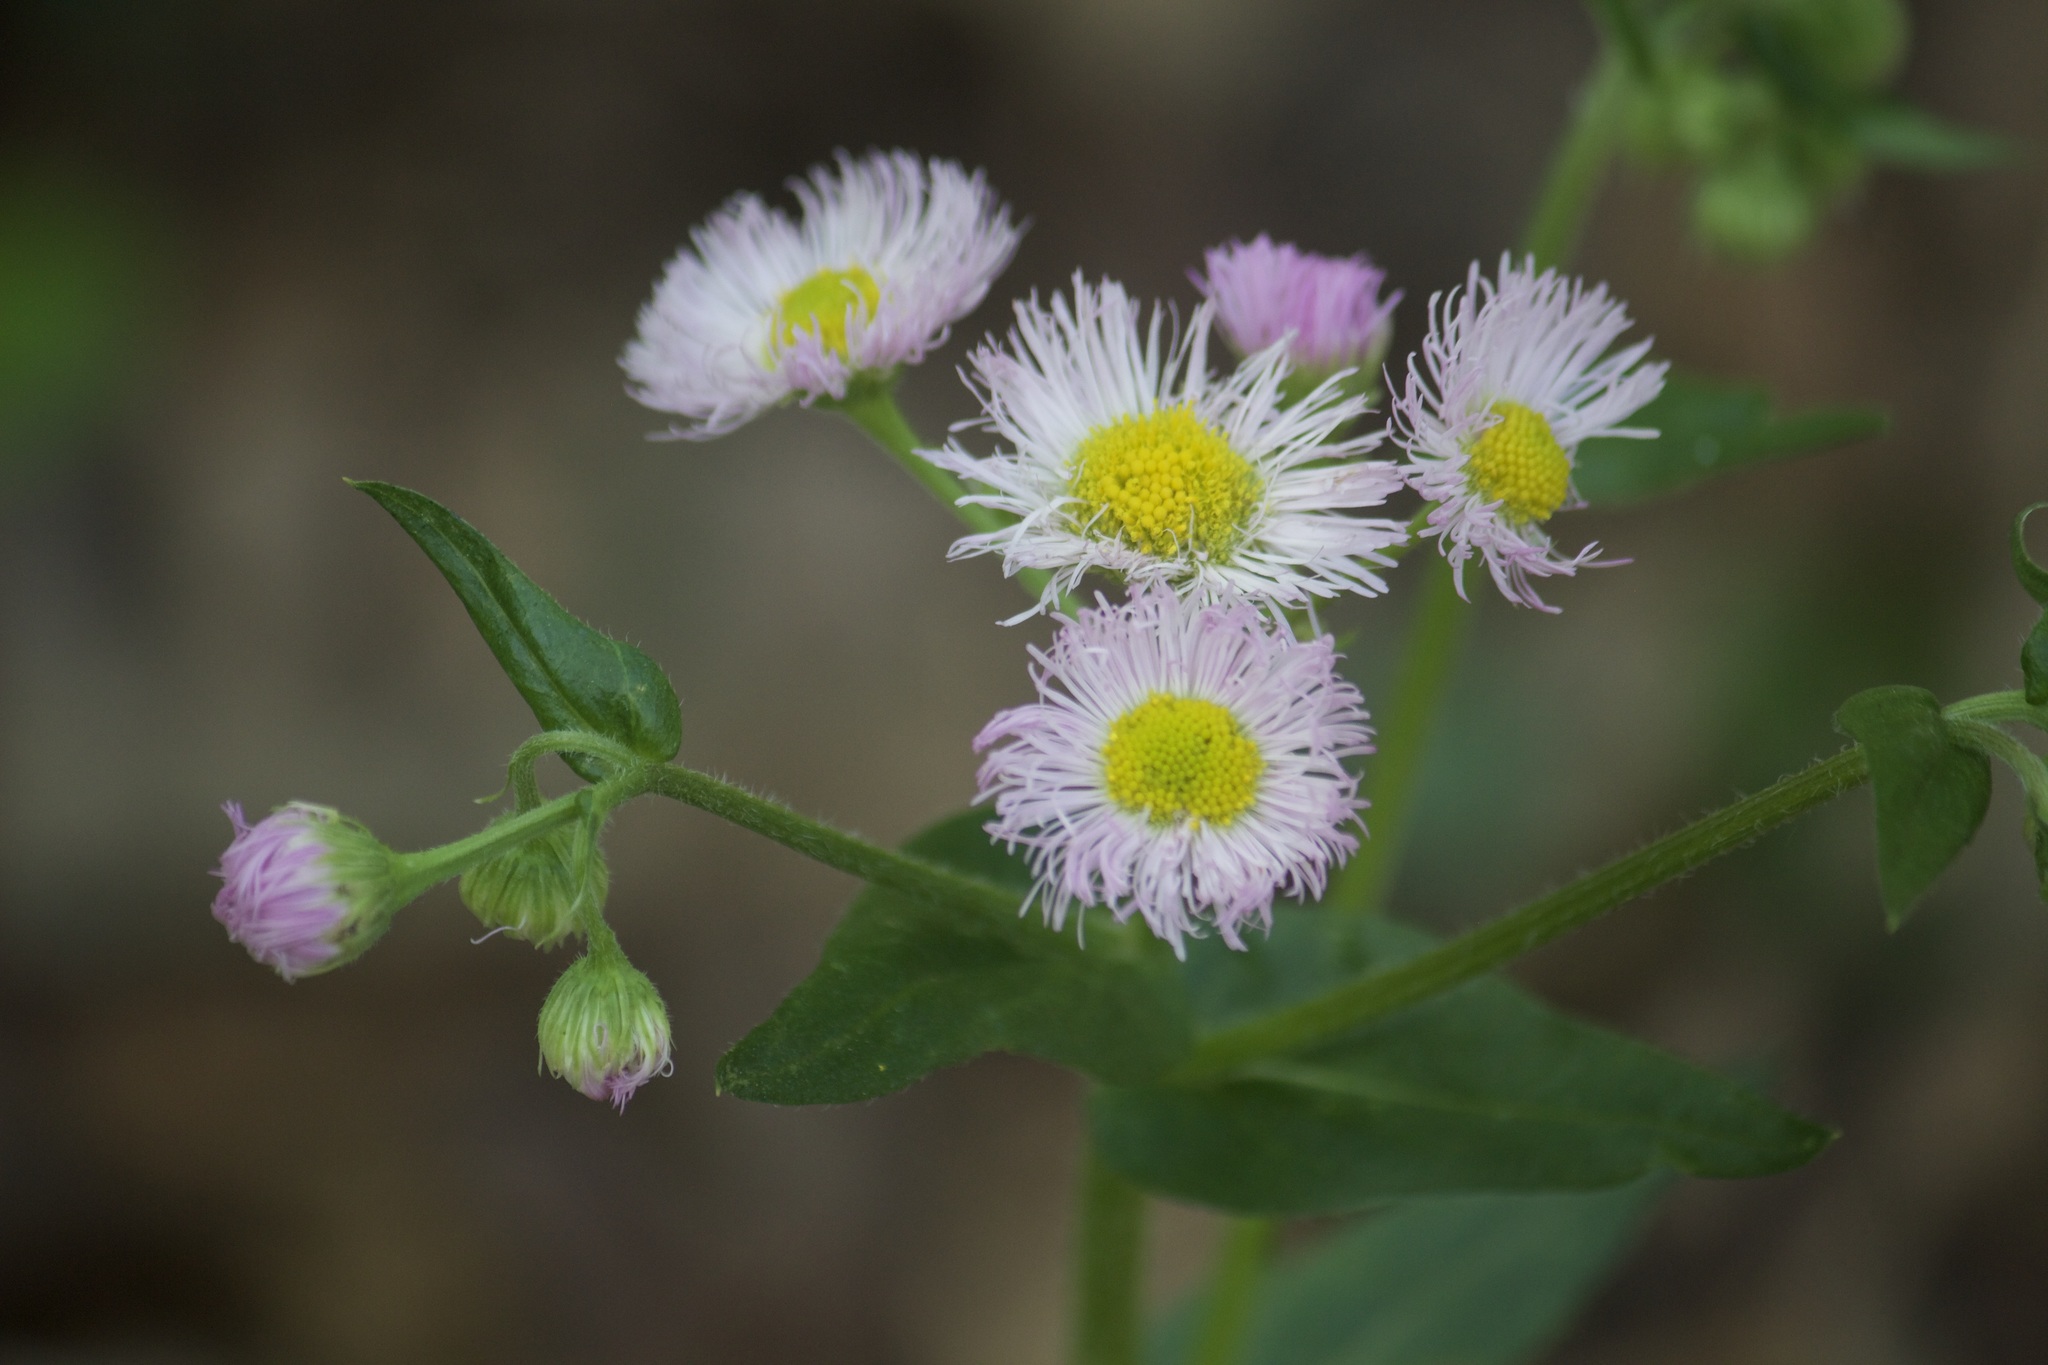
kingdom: Plantae
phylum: Tracheophyta
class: Magnoliopsida
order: Asterales
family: Asteraceae
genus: Erigeron
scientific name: Erigeron philadelphicus
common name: Robin's-plantain
